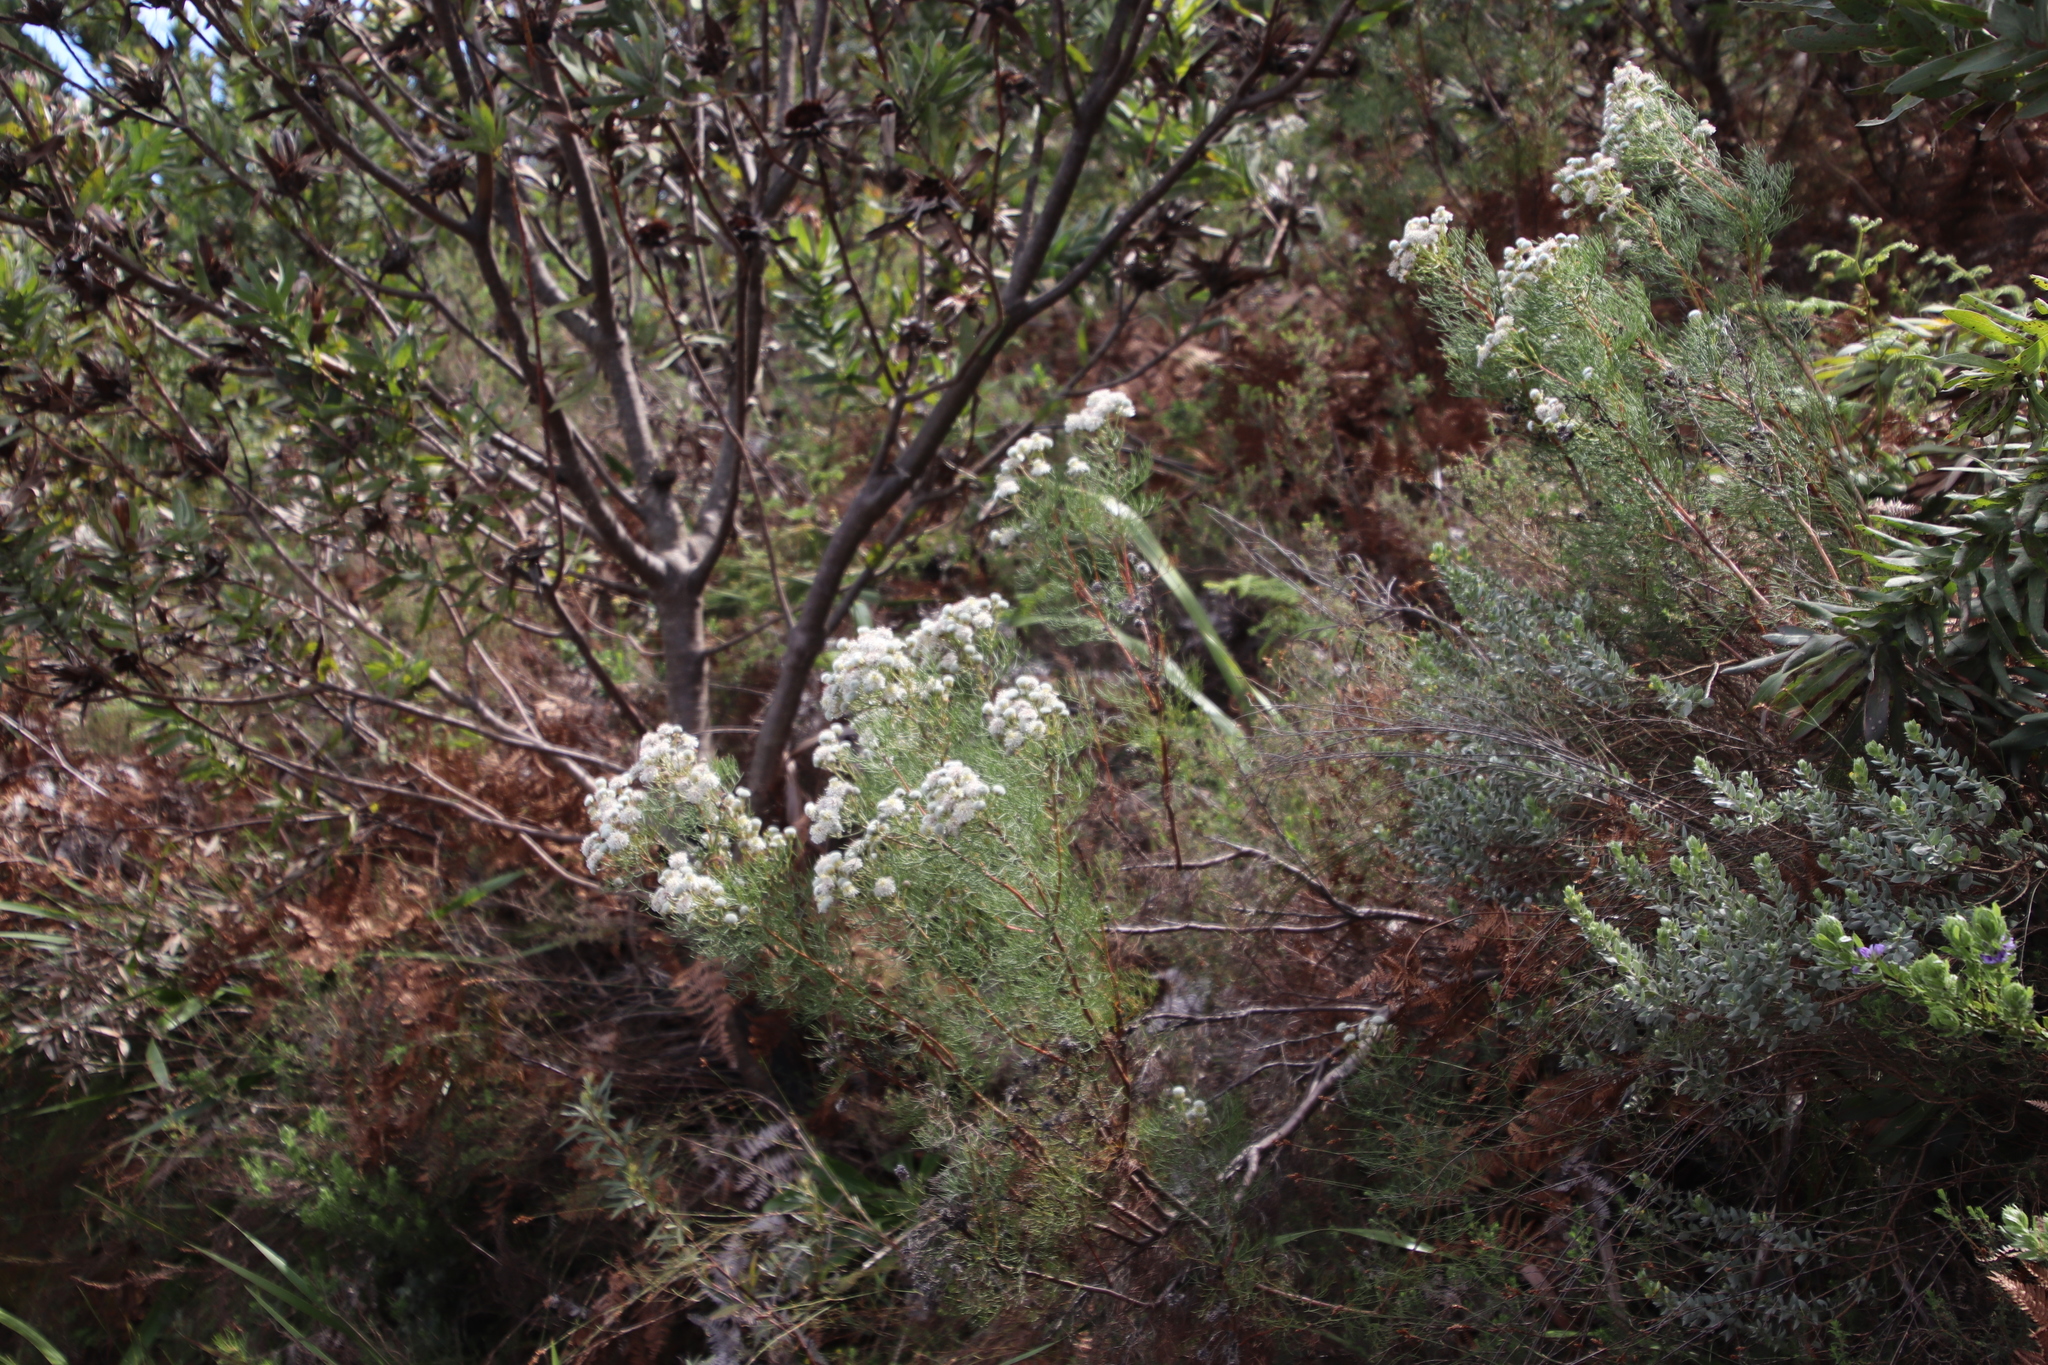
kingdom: Plantae
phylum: Tracheophyta
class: Magnoliopsida
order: Proteales
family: Proteaceae
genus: Serruria
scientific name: Serruria kraussii
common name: Snowball spiderhead
